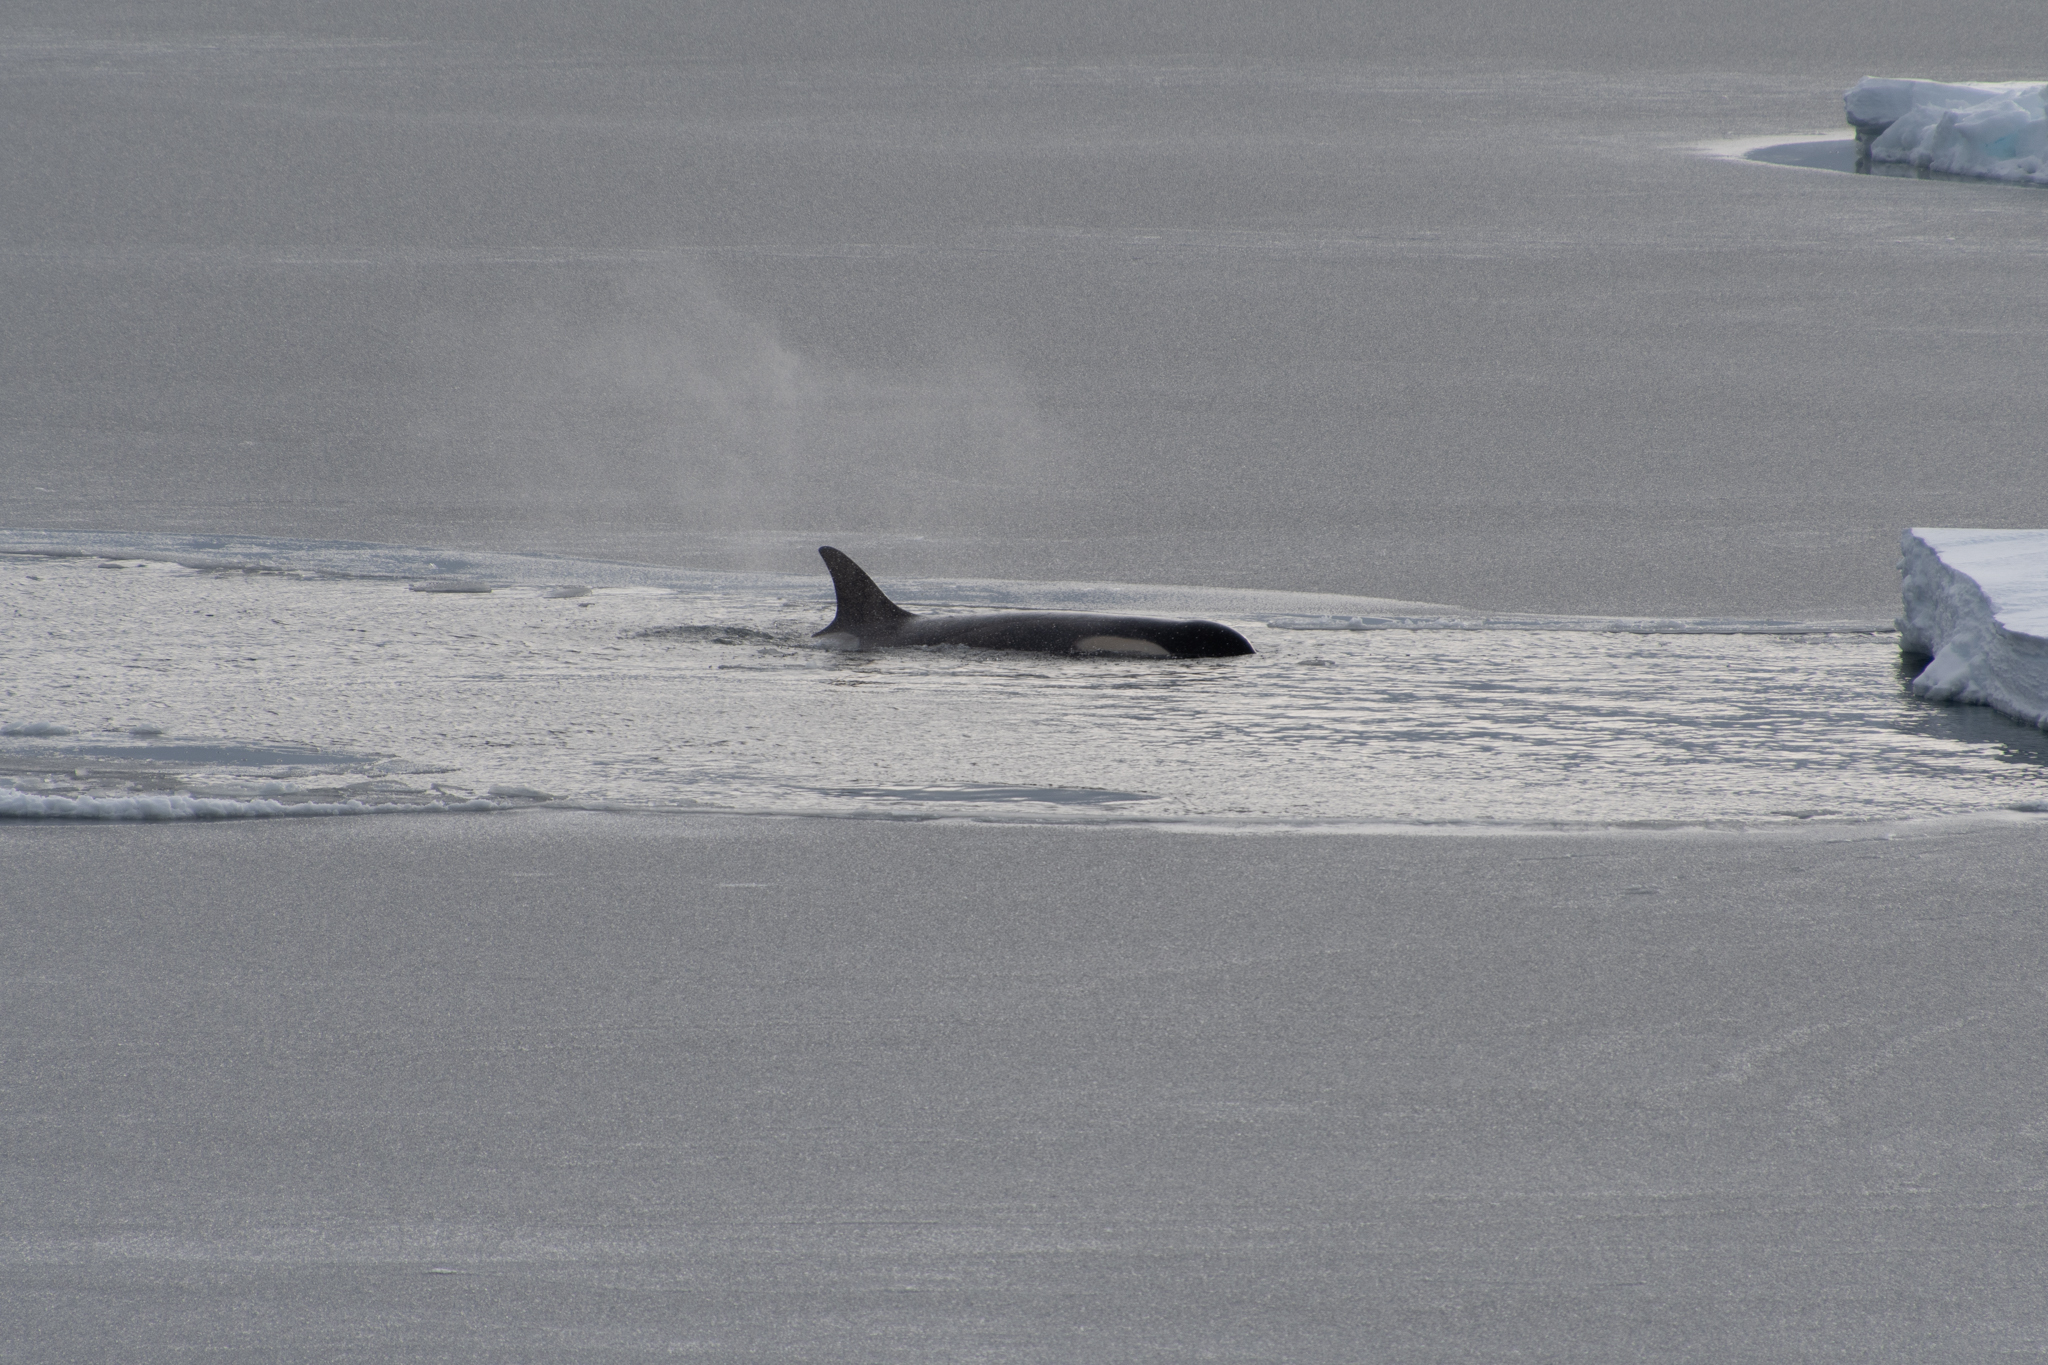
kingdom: Animalia
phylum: Chordata
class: Mammalia
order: Cetacea
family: Delphinidae
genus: Orcinus
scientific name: Orcinus orca
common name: Killer whale
